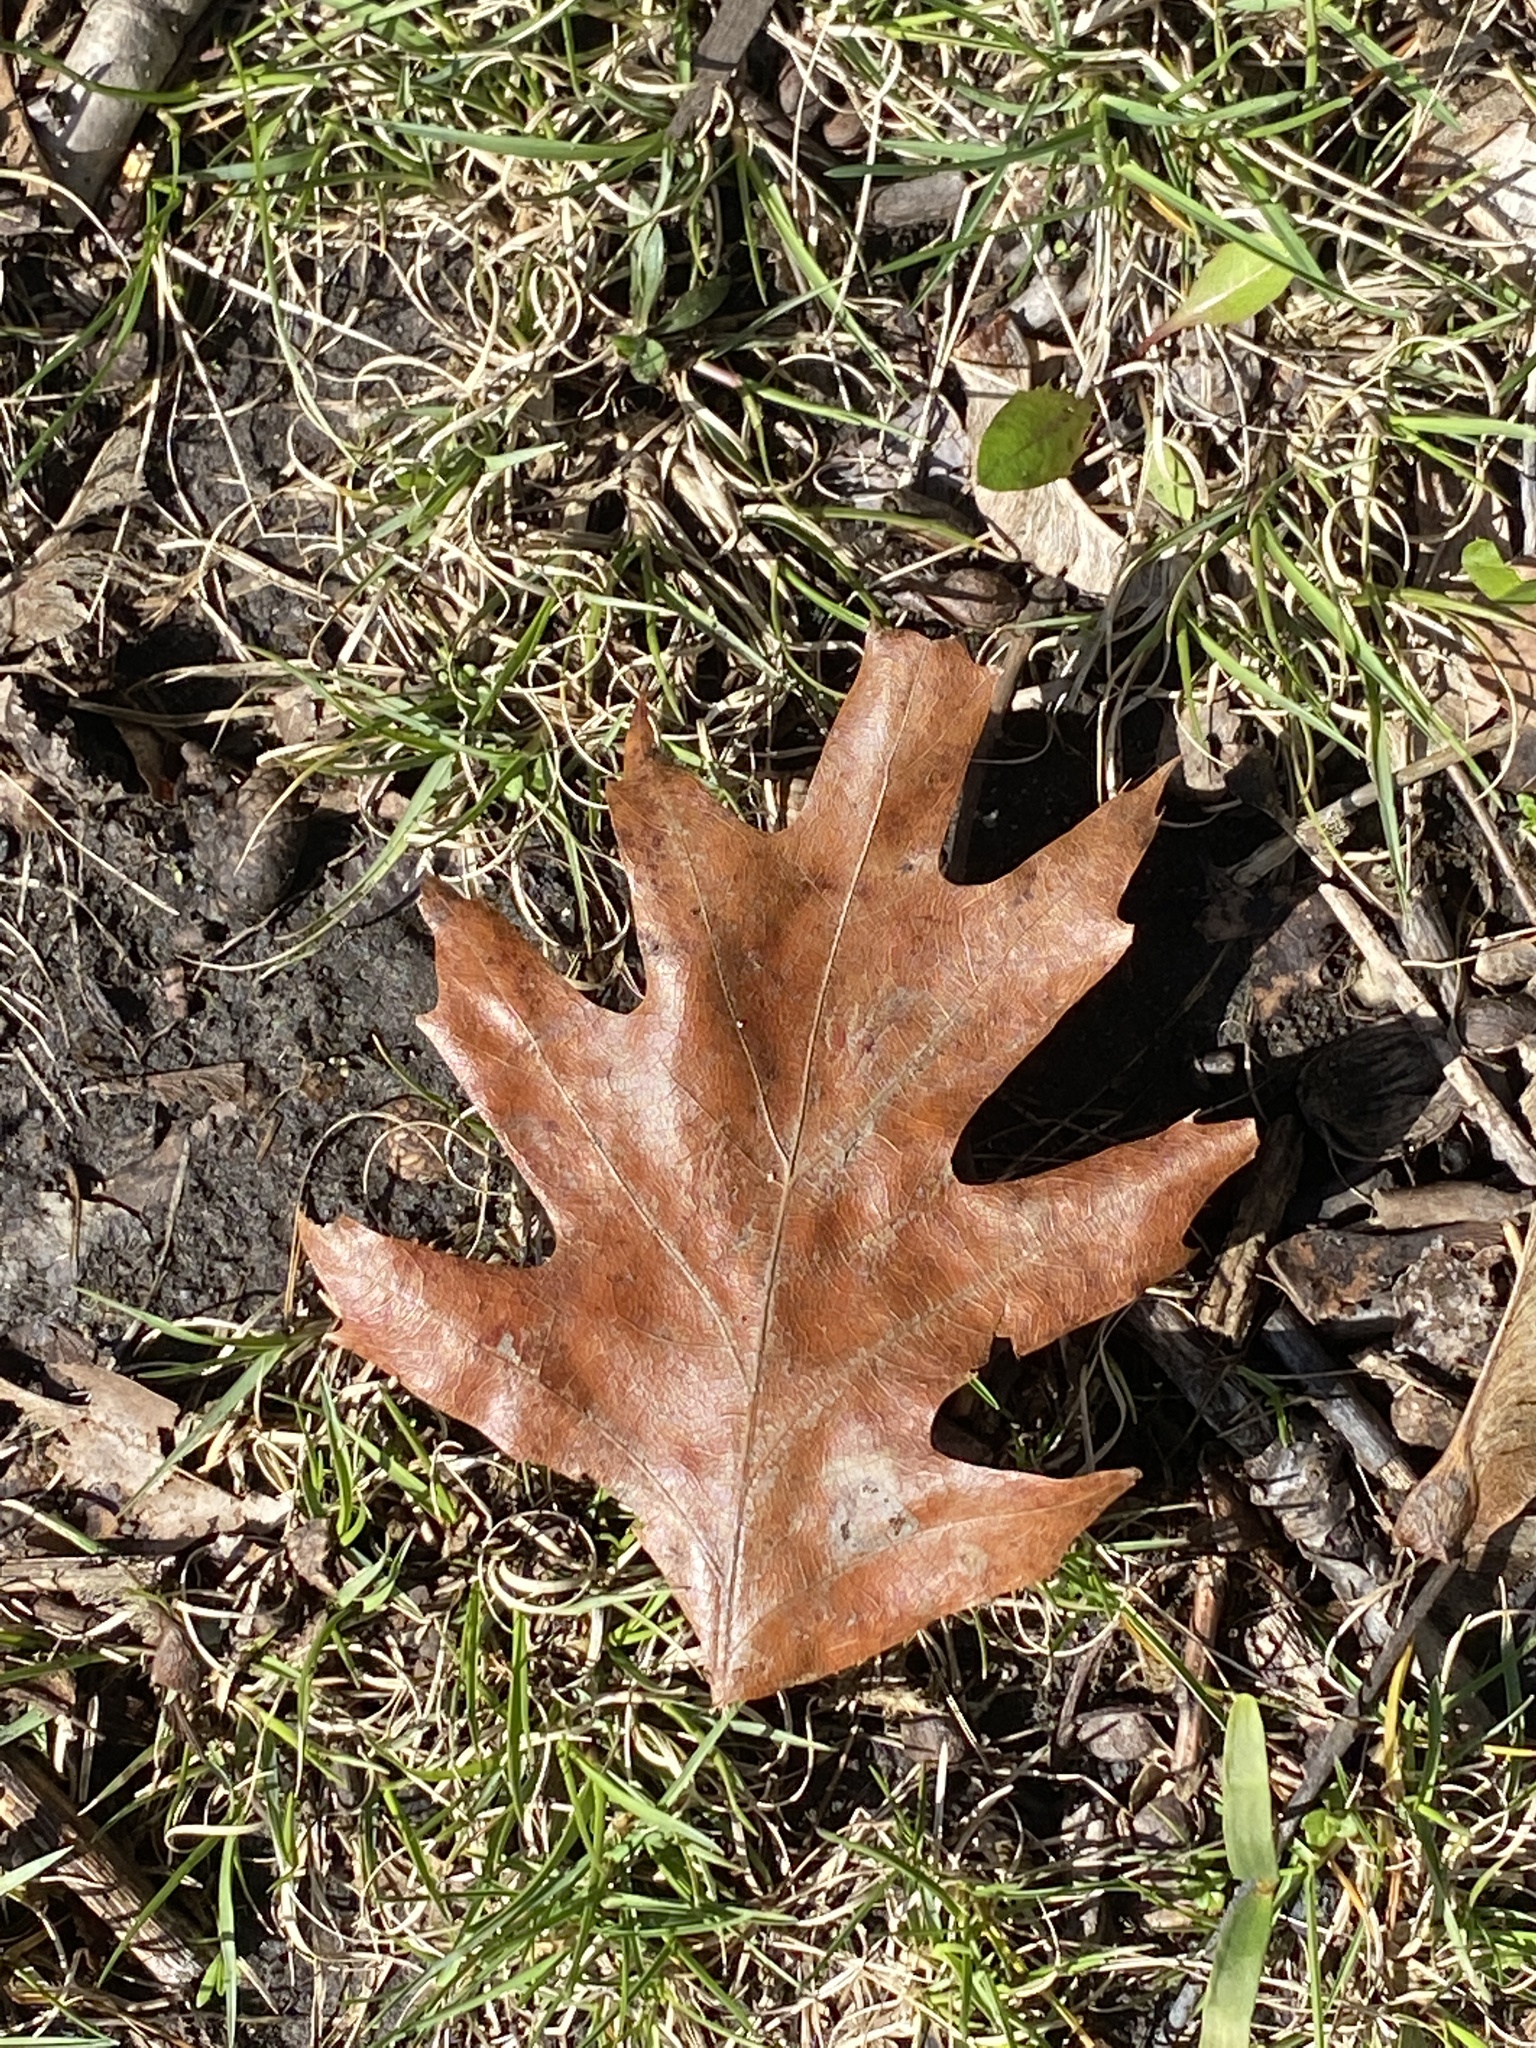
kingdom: Plantae
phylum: Tracheophyta
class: Magnoliopsida
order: Fagales
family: Fagaceae
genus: Quercus
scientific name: Quercus rubra
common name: Red oak
